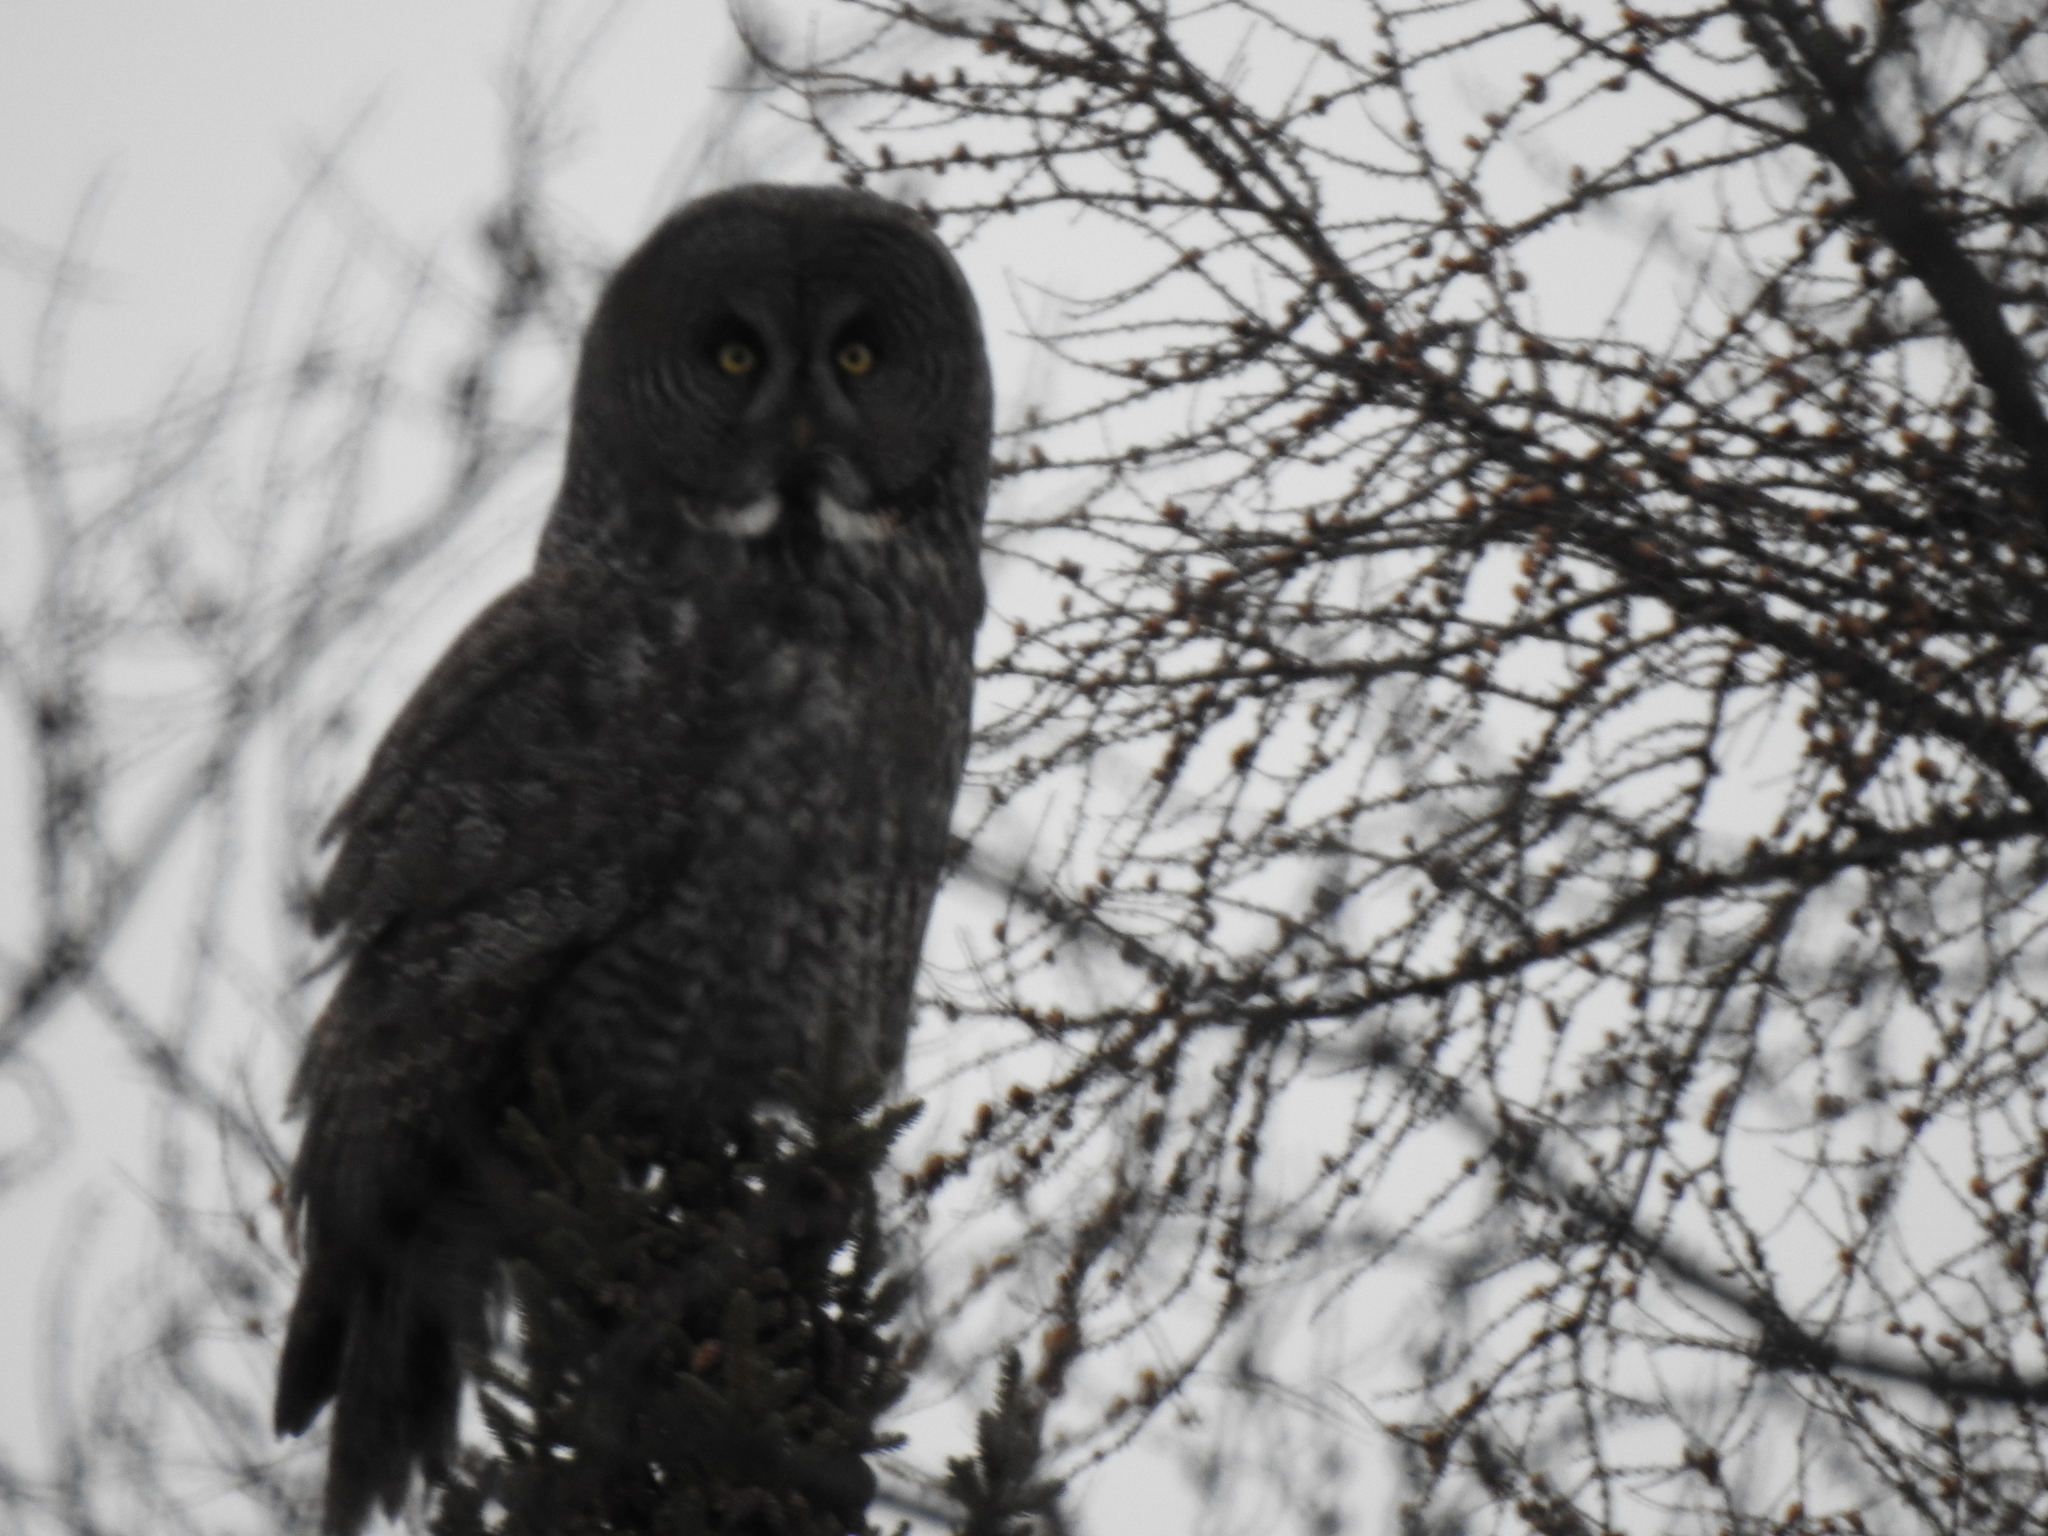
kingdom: Animalia
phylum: Chordata
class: Aves
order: Strigiformes
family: Strigidae
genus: Strix
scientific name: Strix nebulosa
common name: Great grey owl
